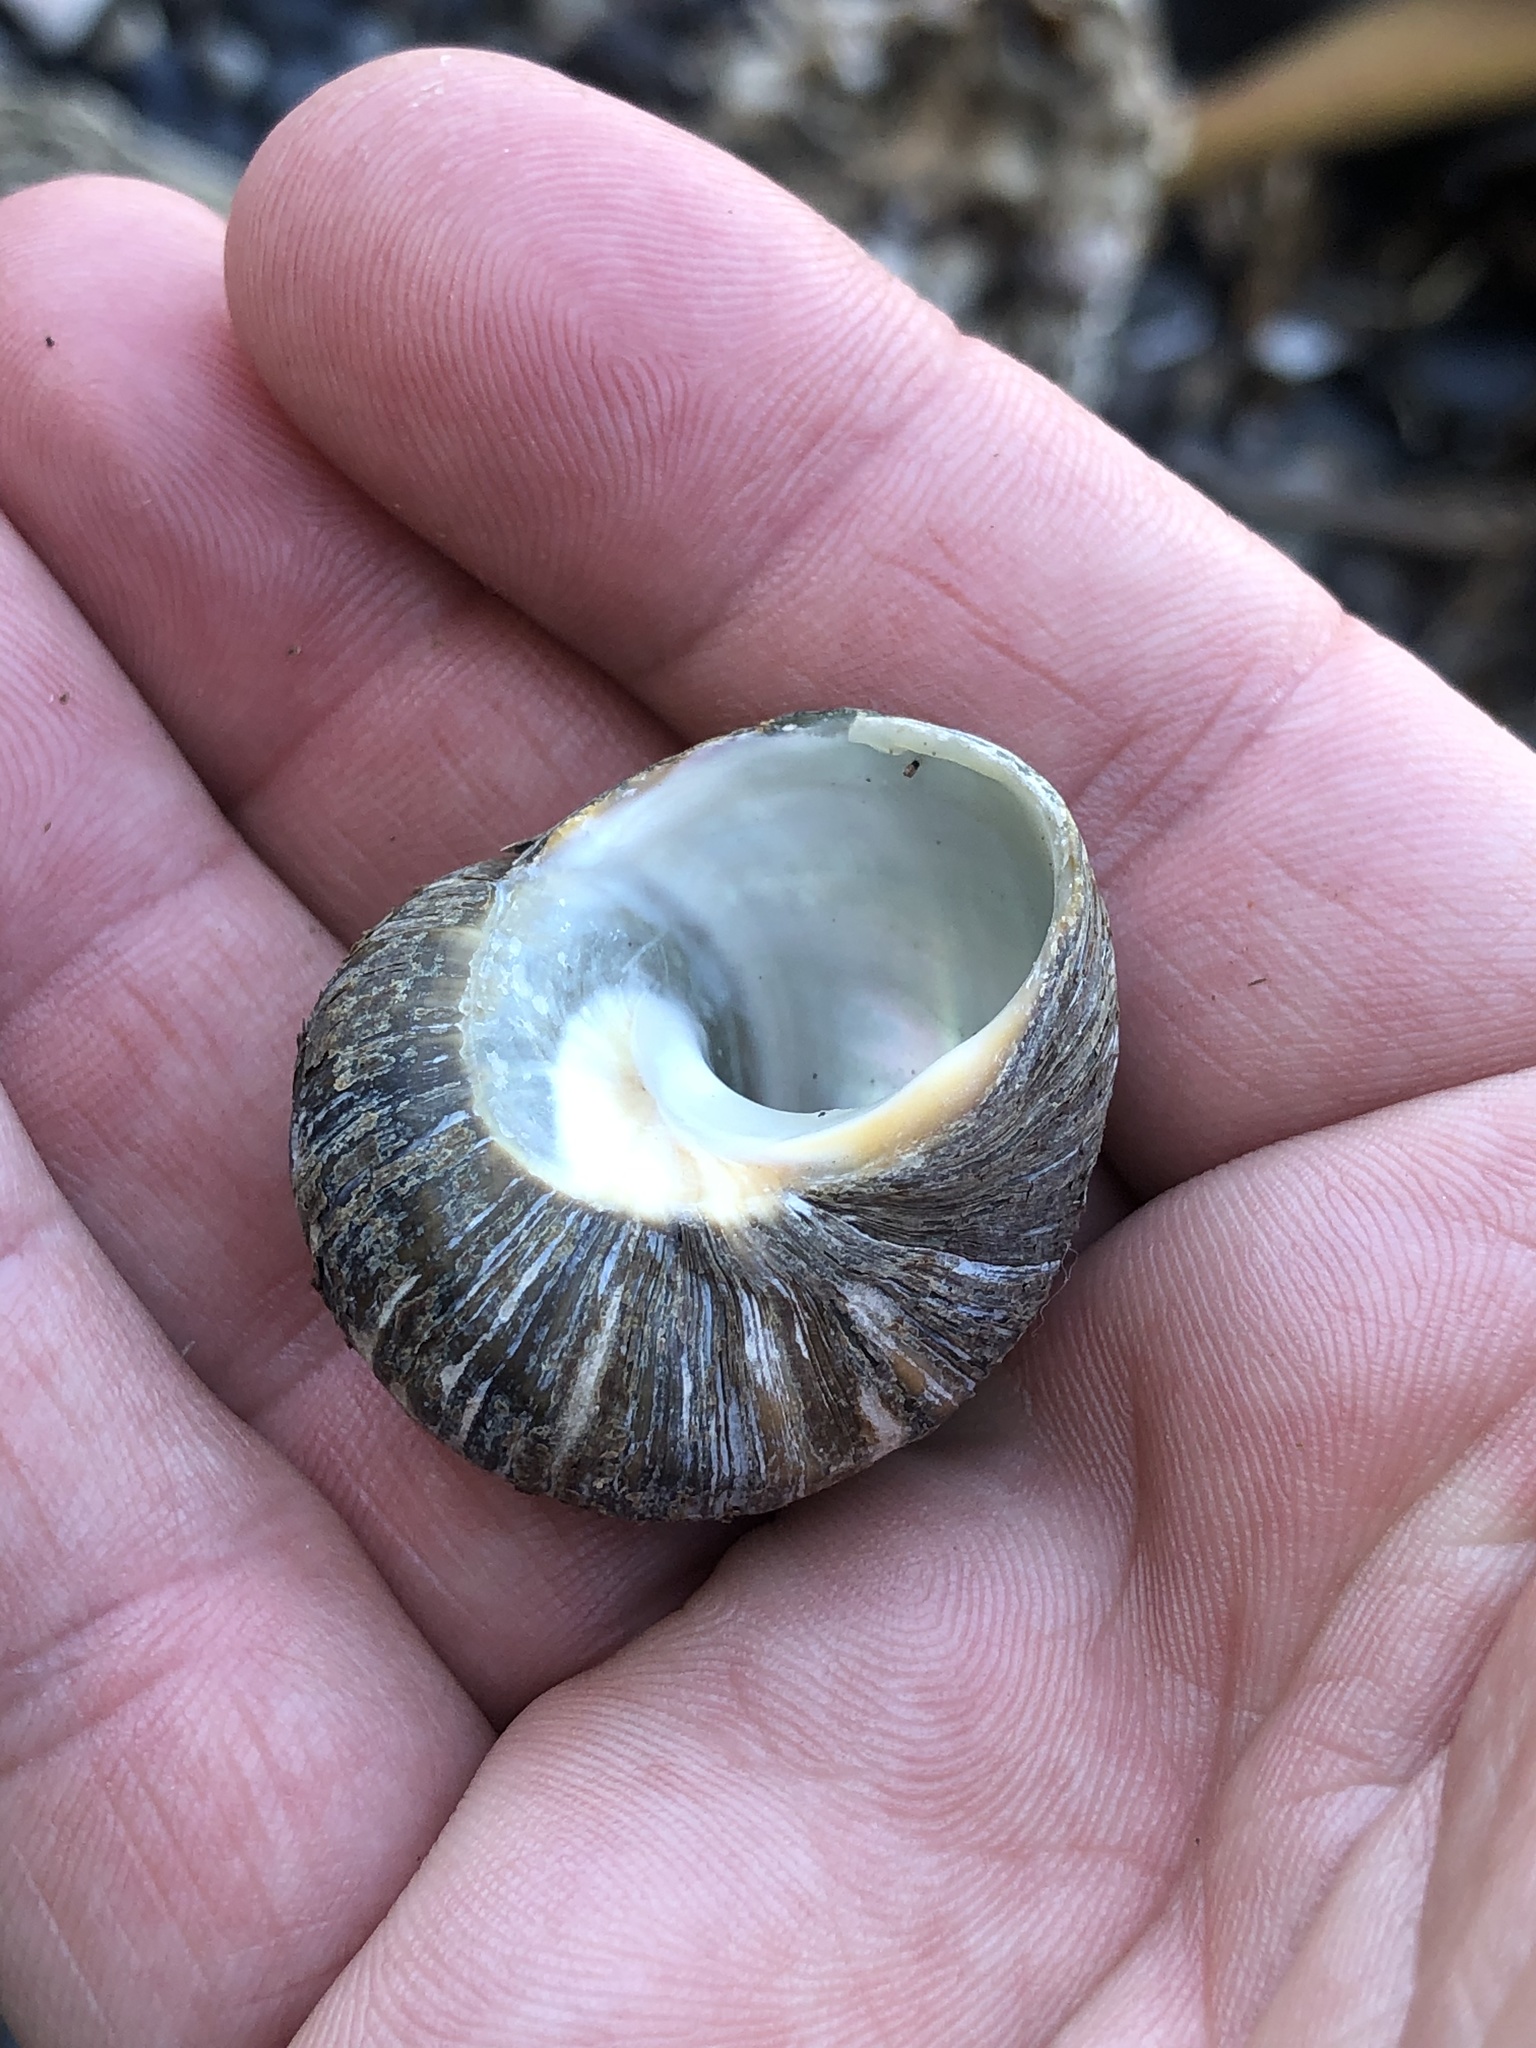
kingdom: Animalia
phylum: Mollusca
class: Gastropoda
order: Trochida
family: Turbinidae
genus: Lunella
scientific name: Lunella smaragda
